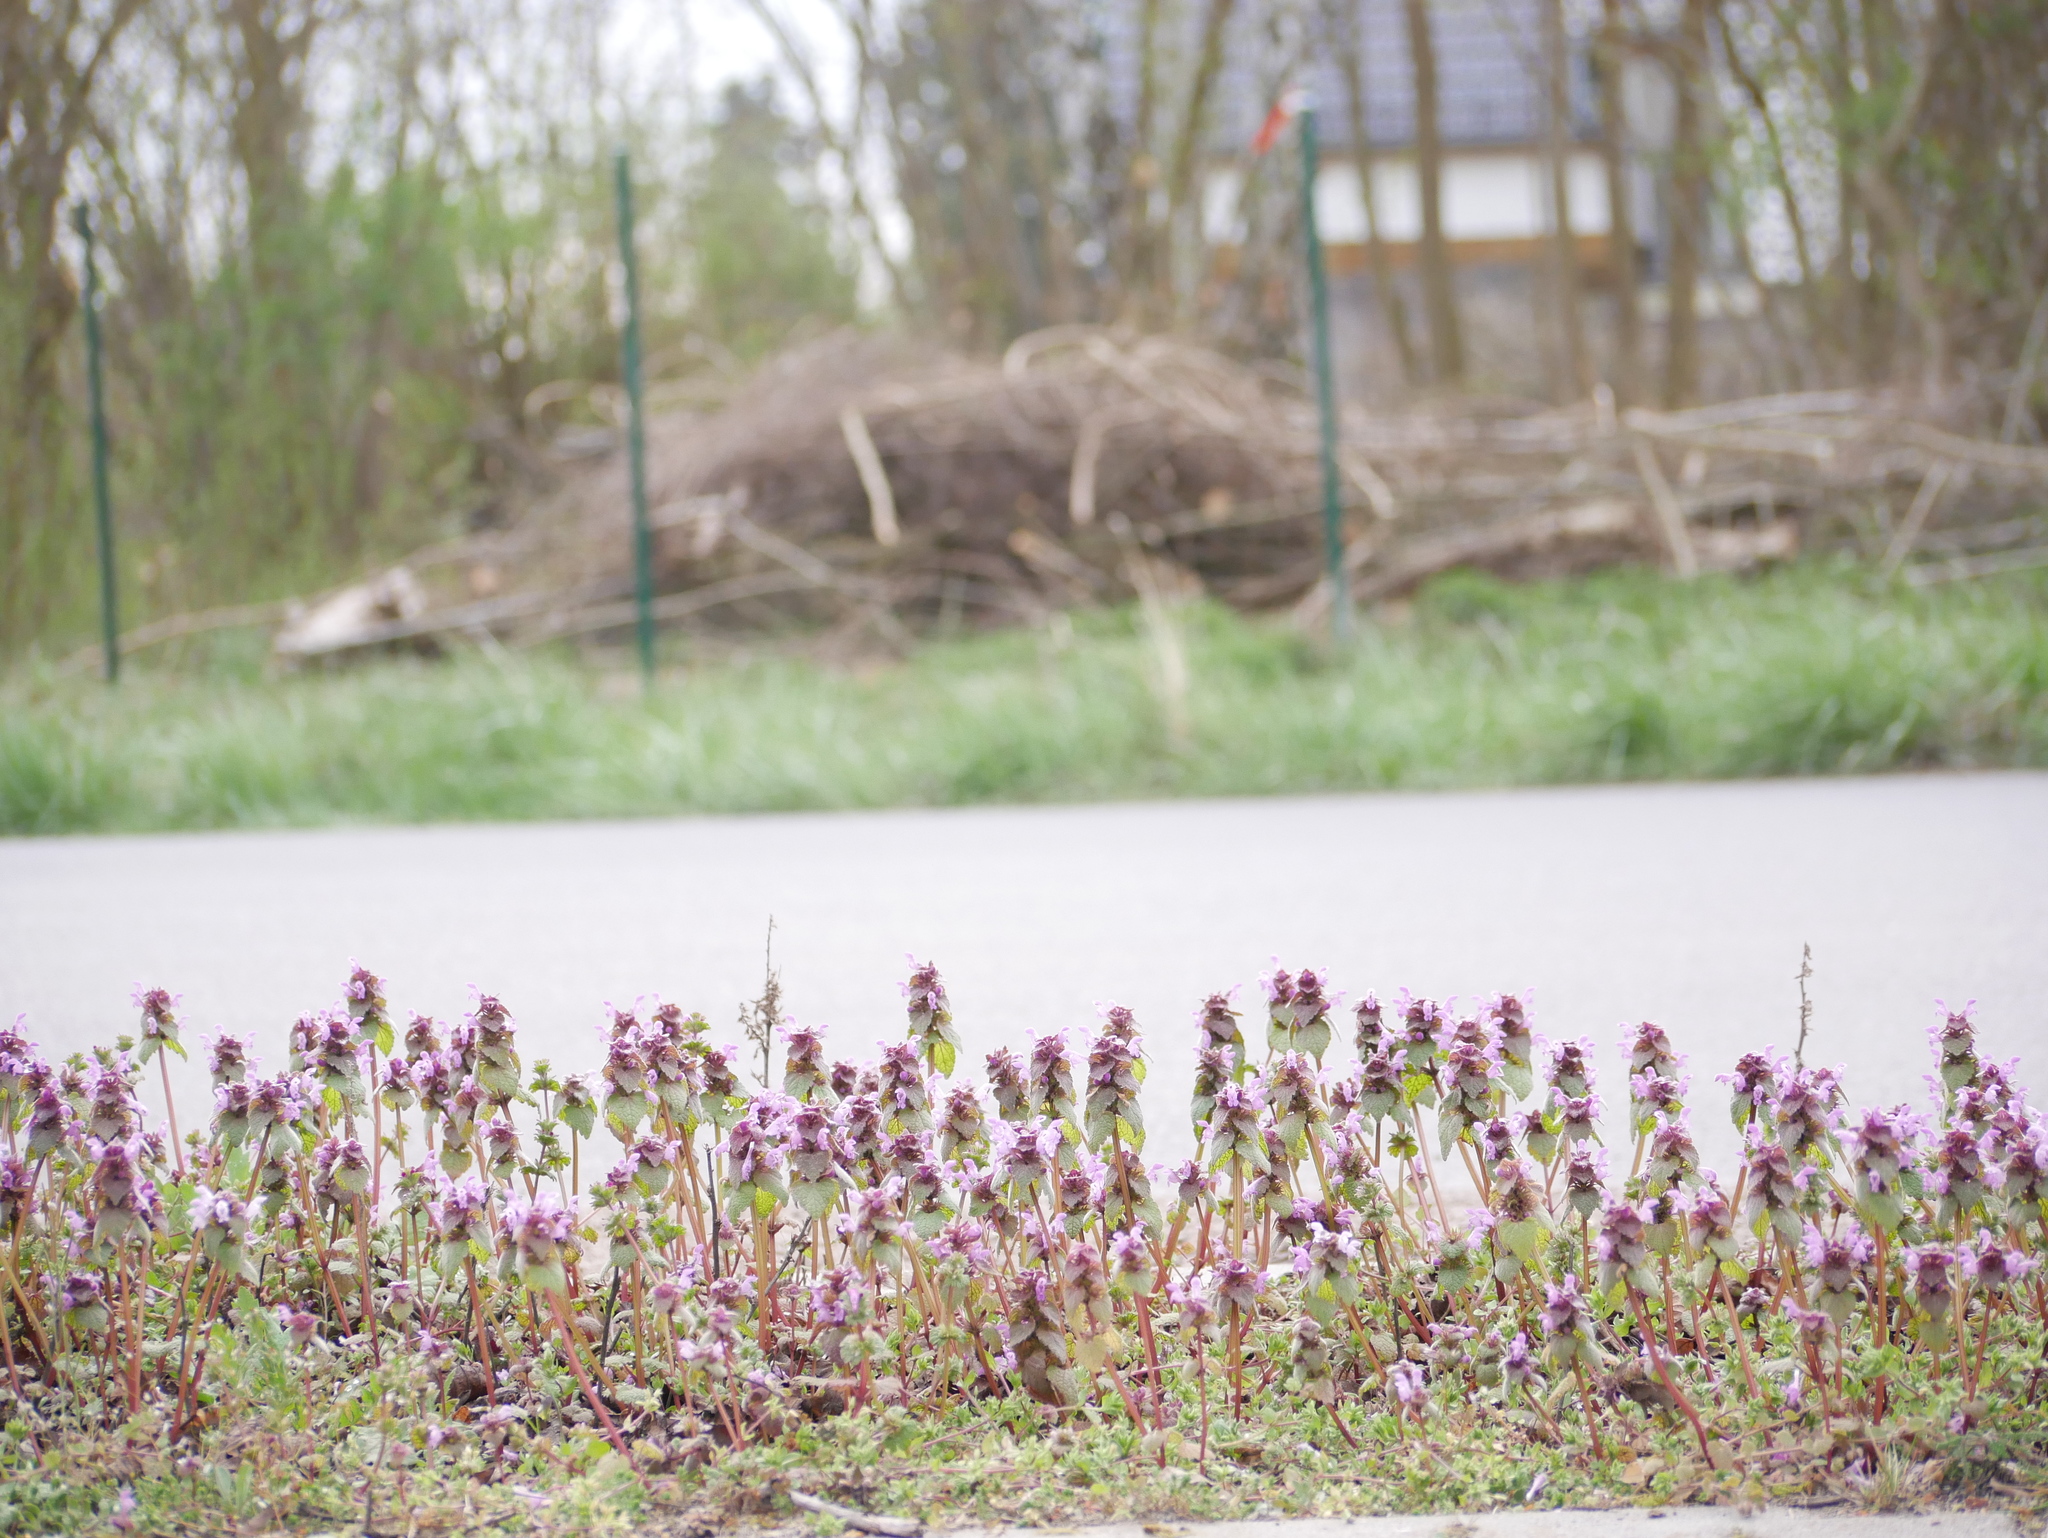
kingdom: Plantae
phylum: Tracheophyta
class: Magnoliopsida
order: Lamiales
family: Lamiaceae
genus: Lamium
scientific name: Lamium purpureum
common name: Red dead-nettle
